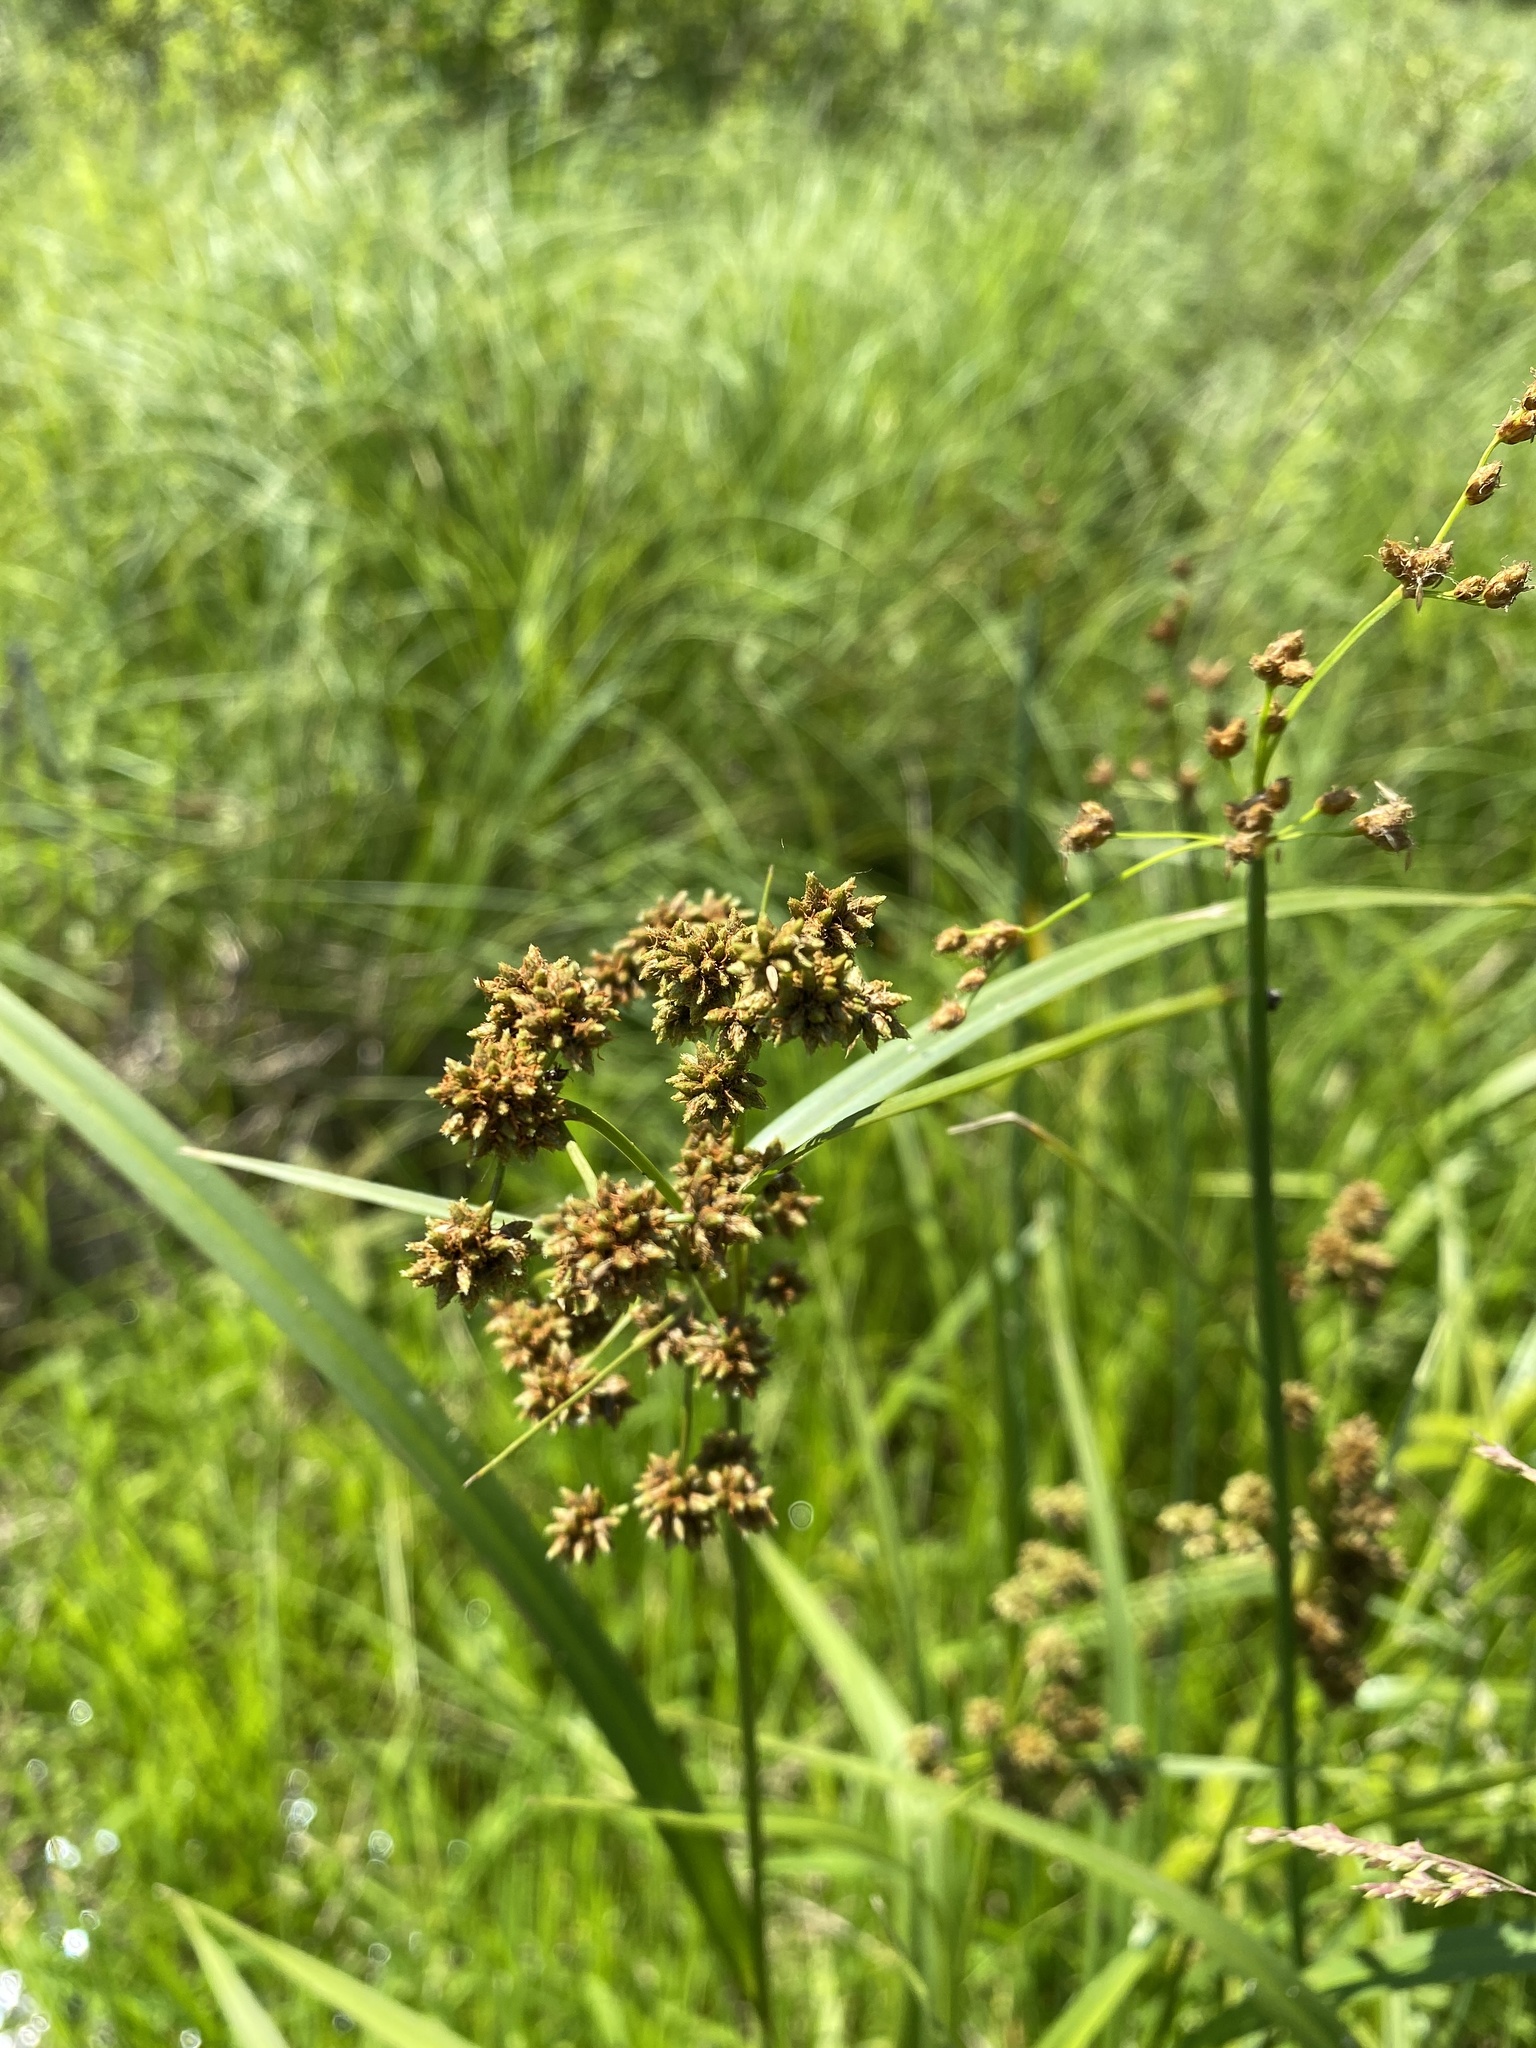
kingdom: Plantae
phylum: Tracheophyta
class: Liliopsida
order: Poales
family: Cyperaceae
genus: Scirpus
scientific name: Scirpus atrovirens
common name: Black bulrush
